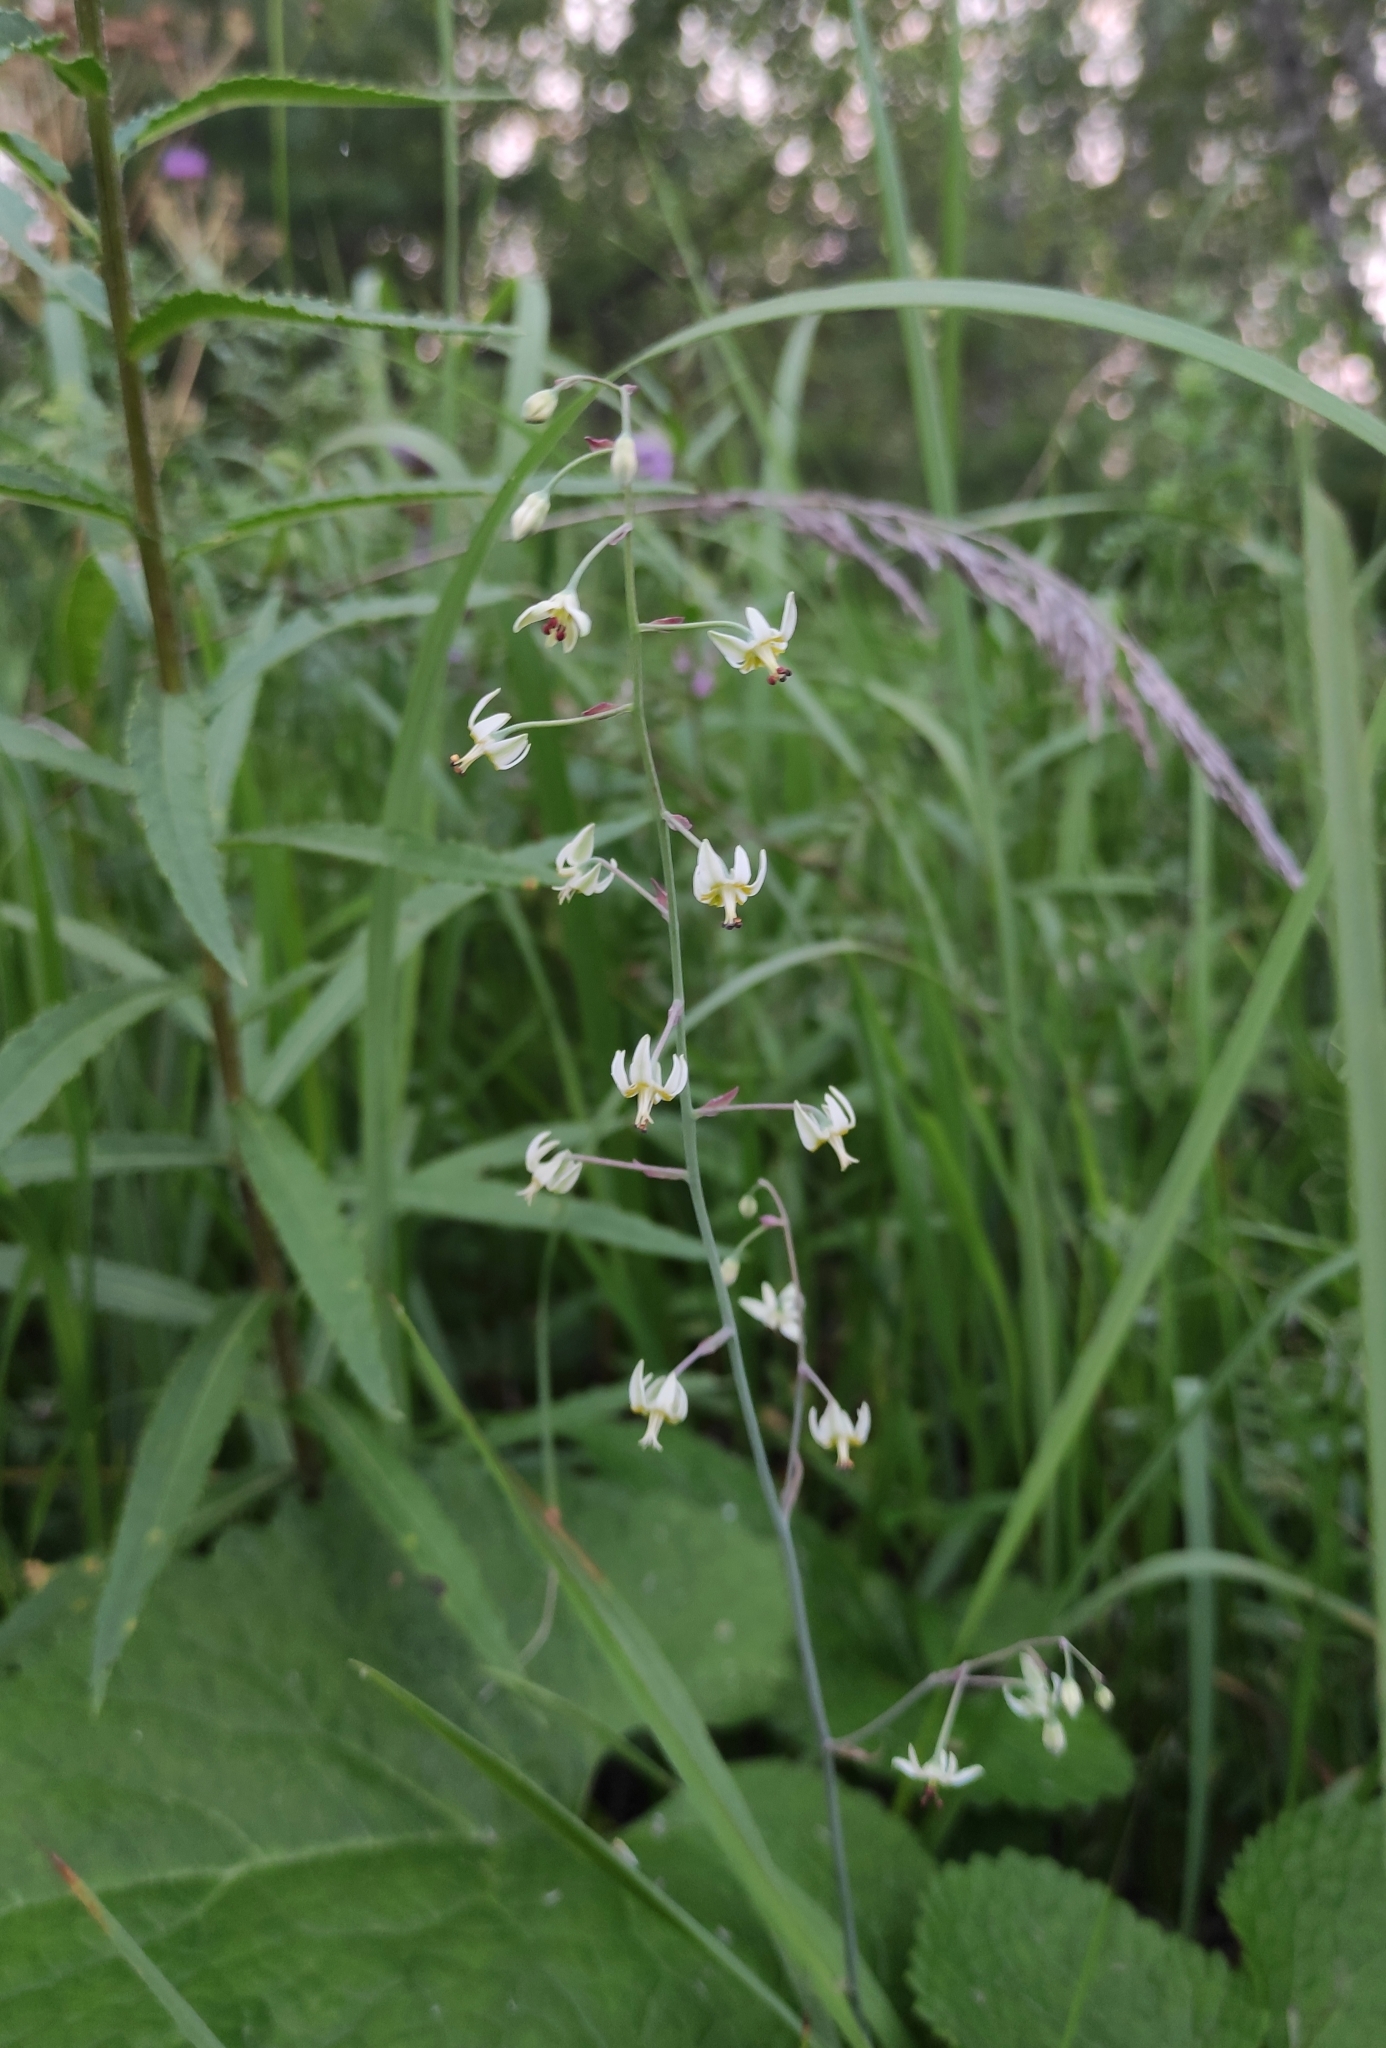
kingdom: Plantae
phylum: Tracheophyta
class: Liliopsida
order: Liliales
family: Melanthiaceae
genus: Anticlea
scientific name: Anticlea sibirica
